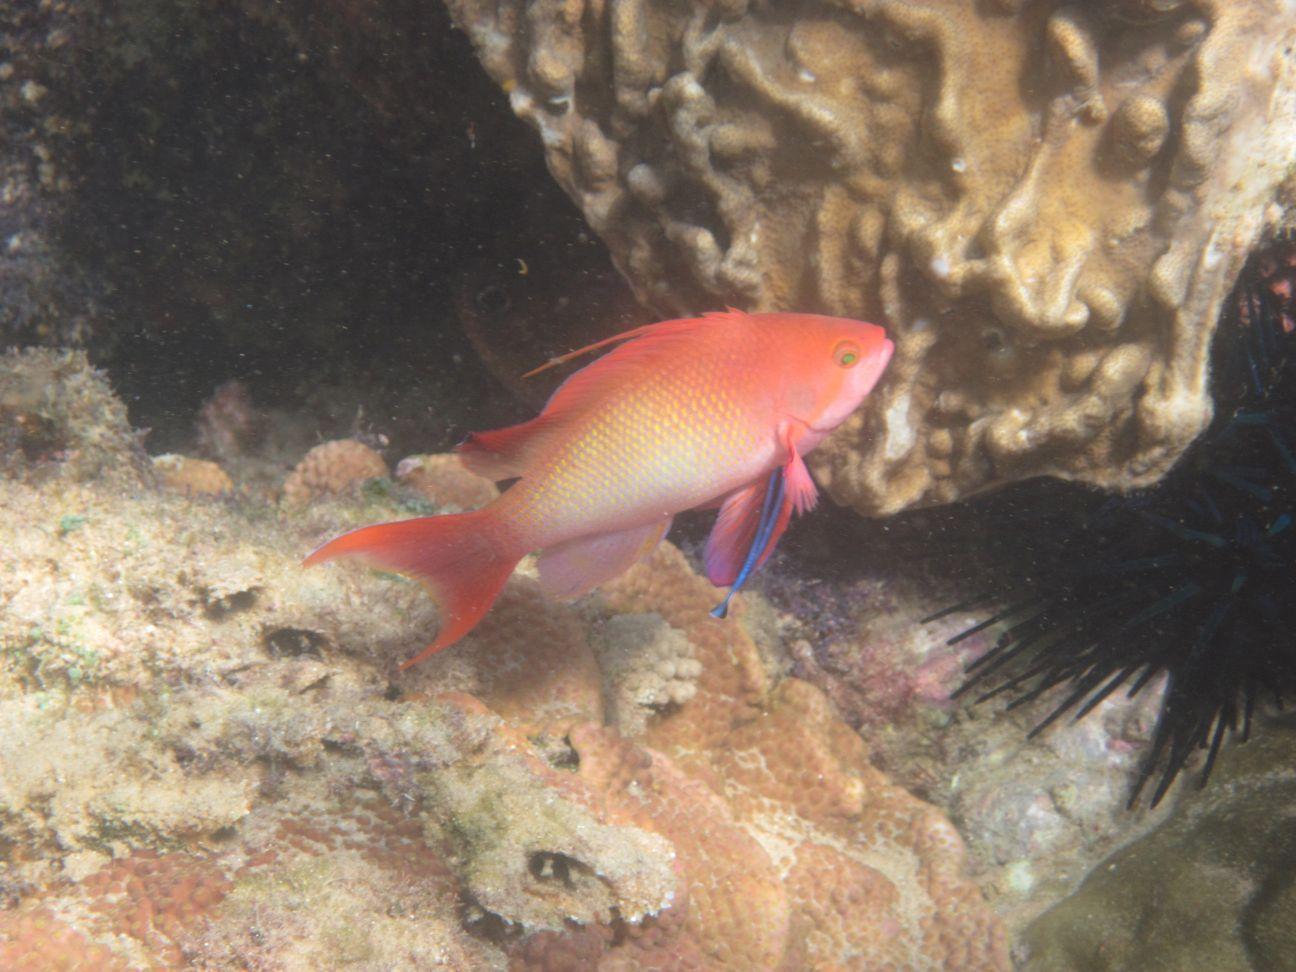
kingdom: Animalia
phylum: Chordata
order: Perciformes
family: Serranidae
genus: Pseudanthias
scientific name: Pseudanthias squamipinnis
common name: Scalefin anthias
